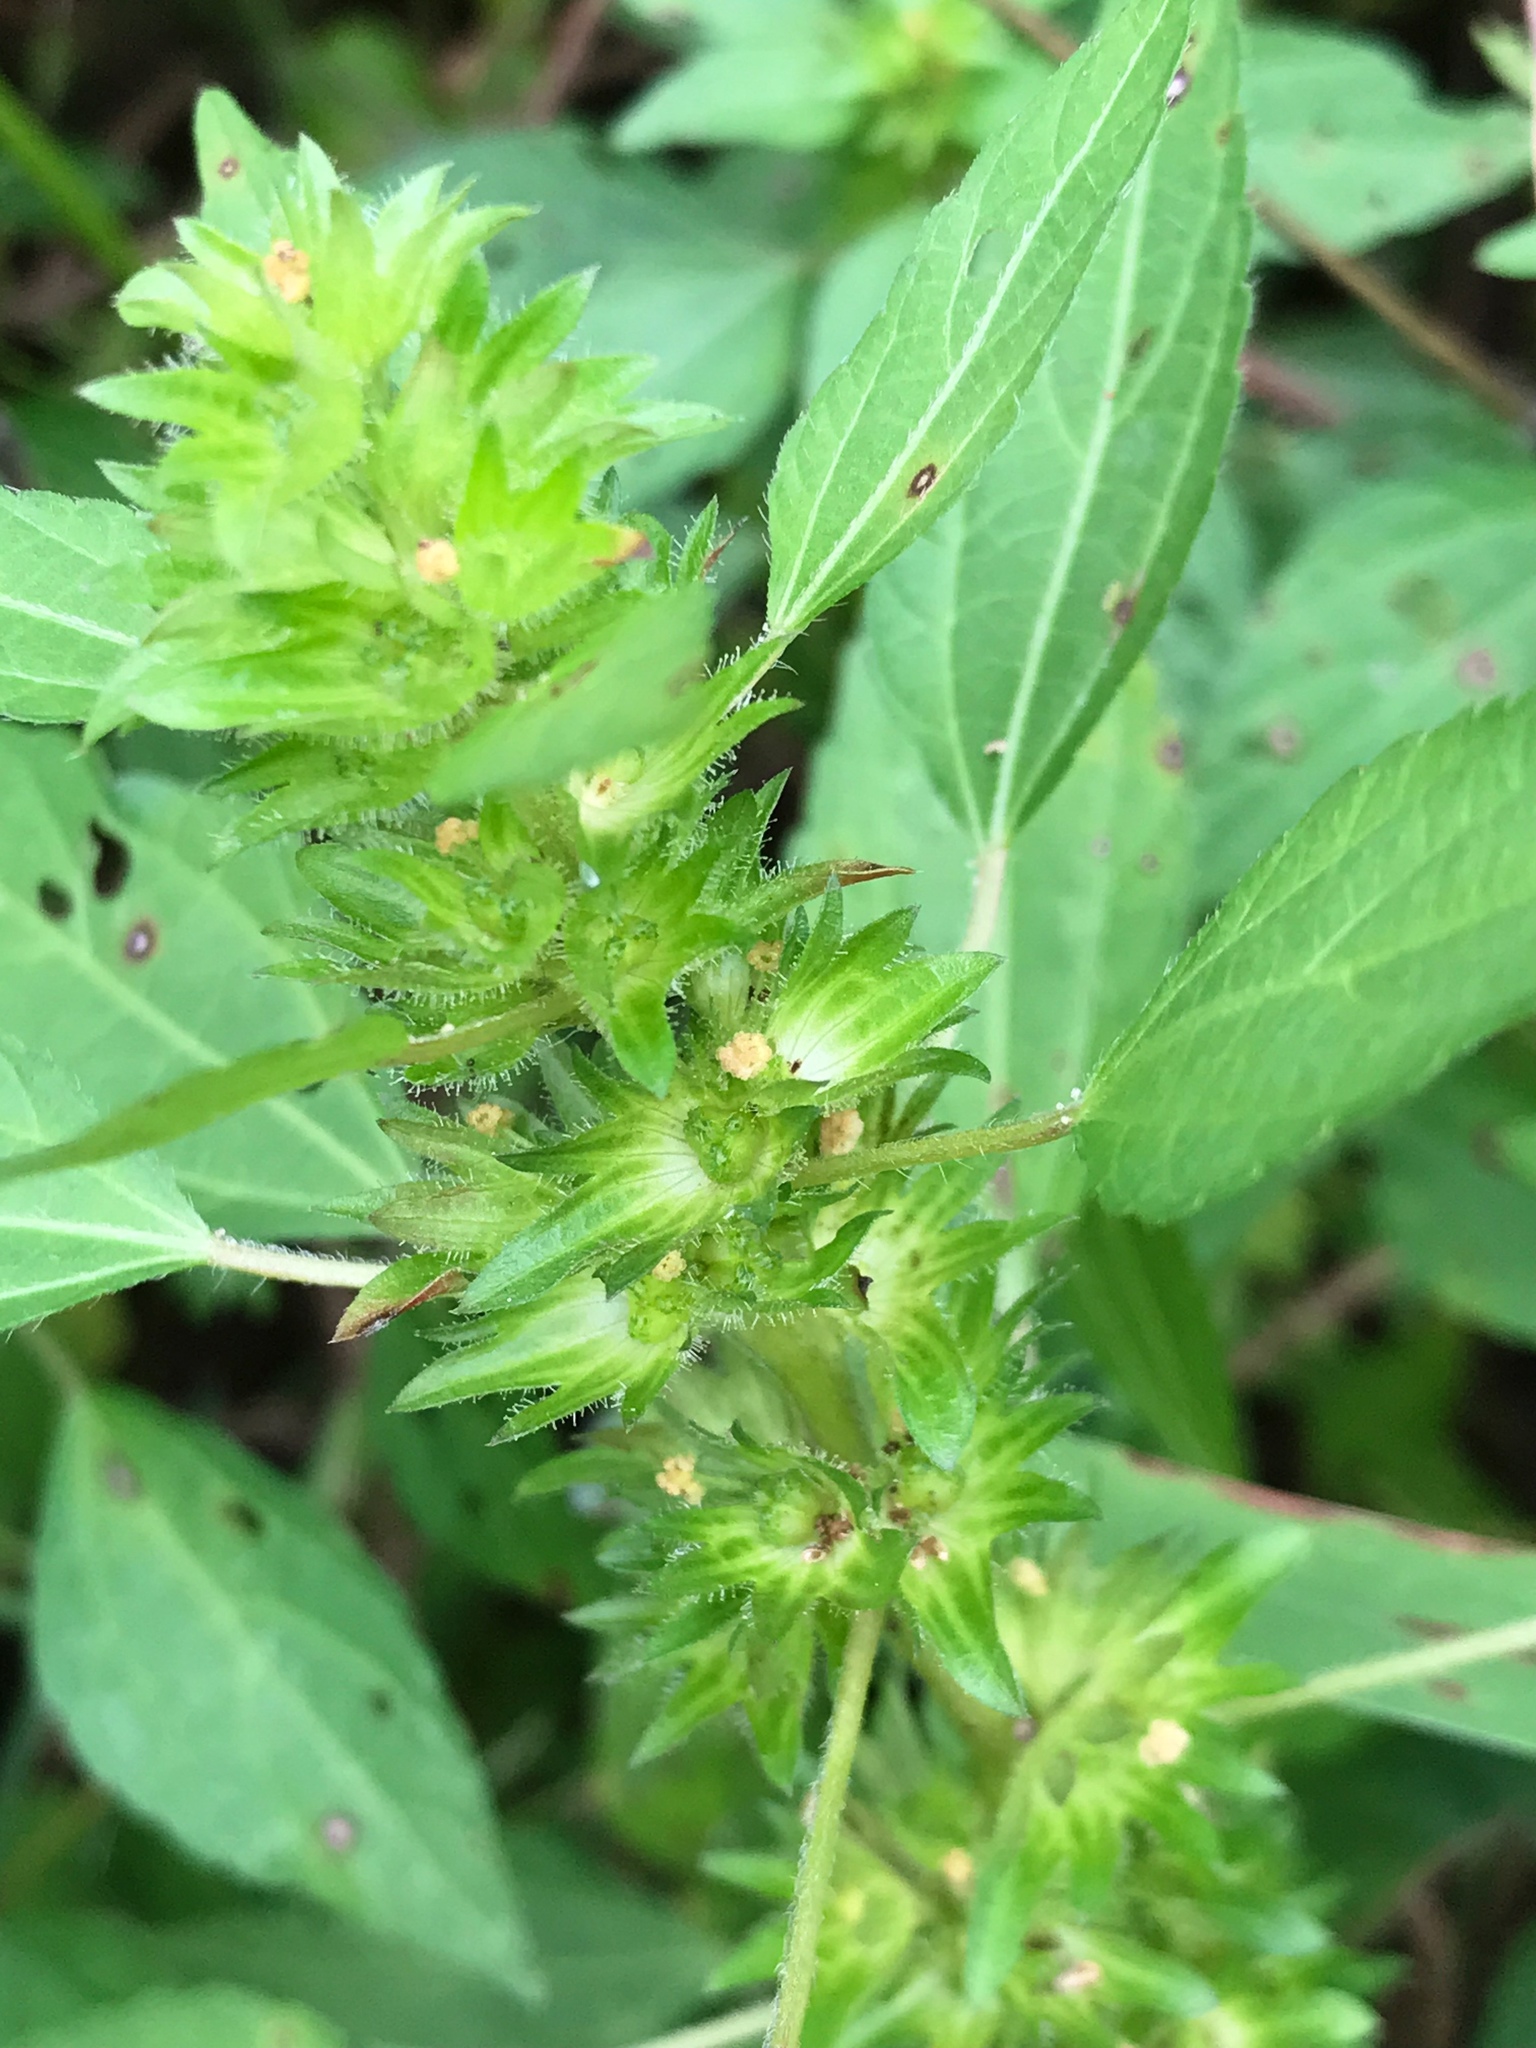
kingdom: Plantae
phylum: Tracheophyta
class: Magnoliopsida
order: Malpighiales
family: Euphorbiaceae
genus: Acalypha
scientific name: Acalypha rhomboidea
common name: Rhombic copperleaf
